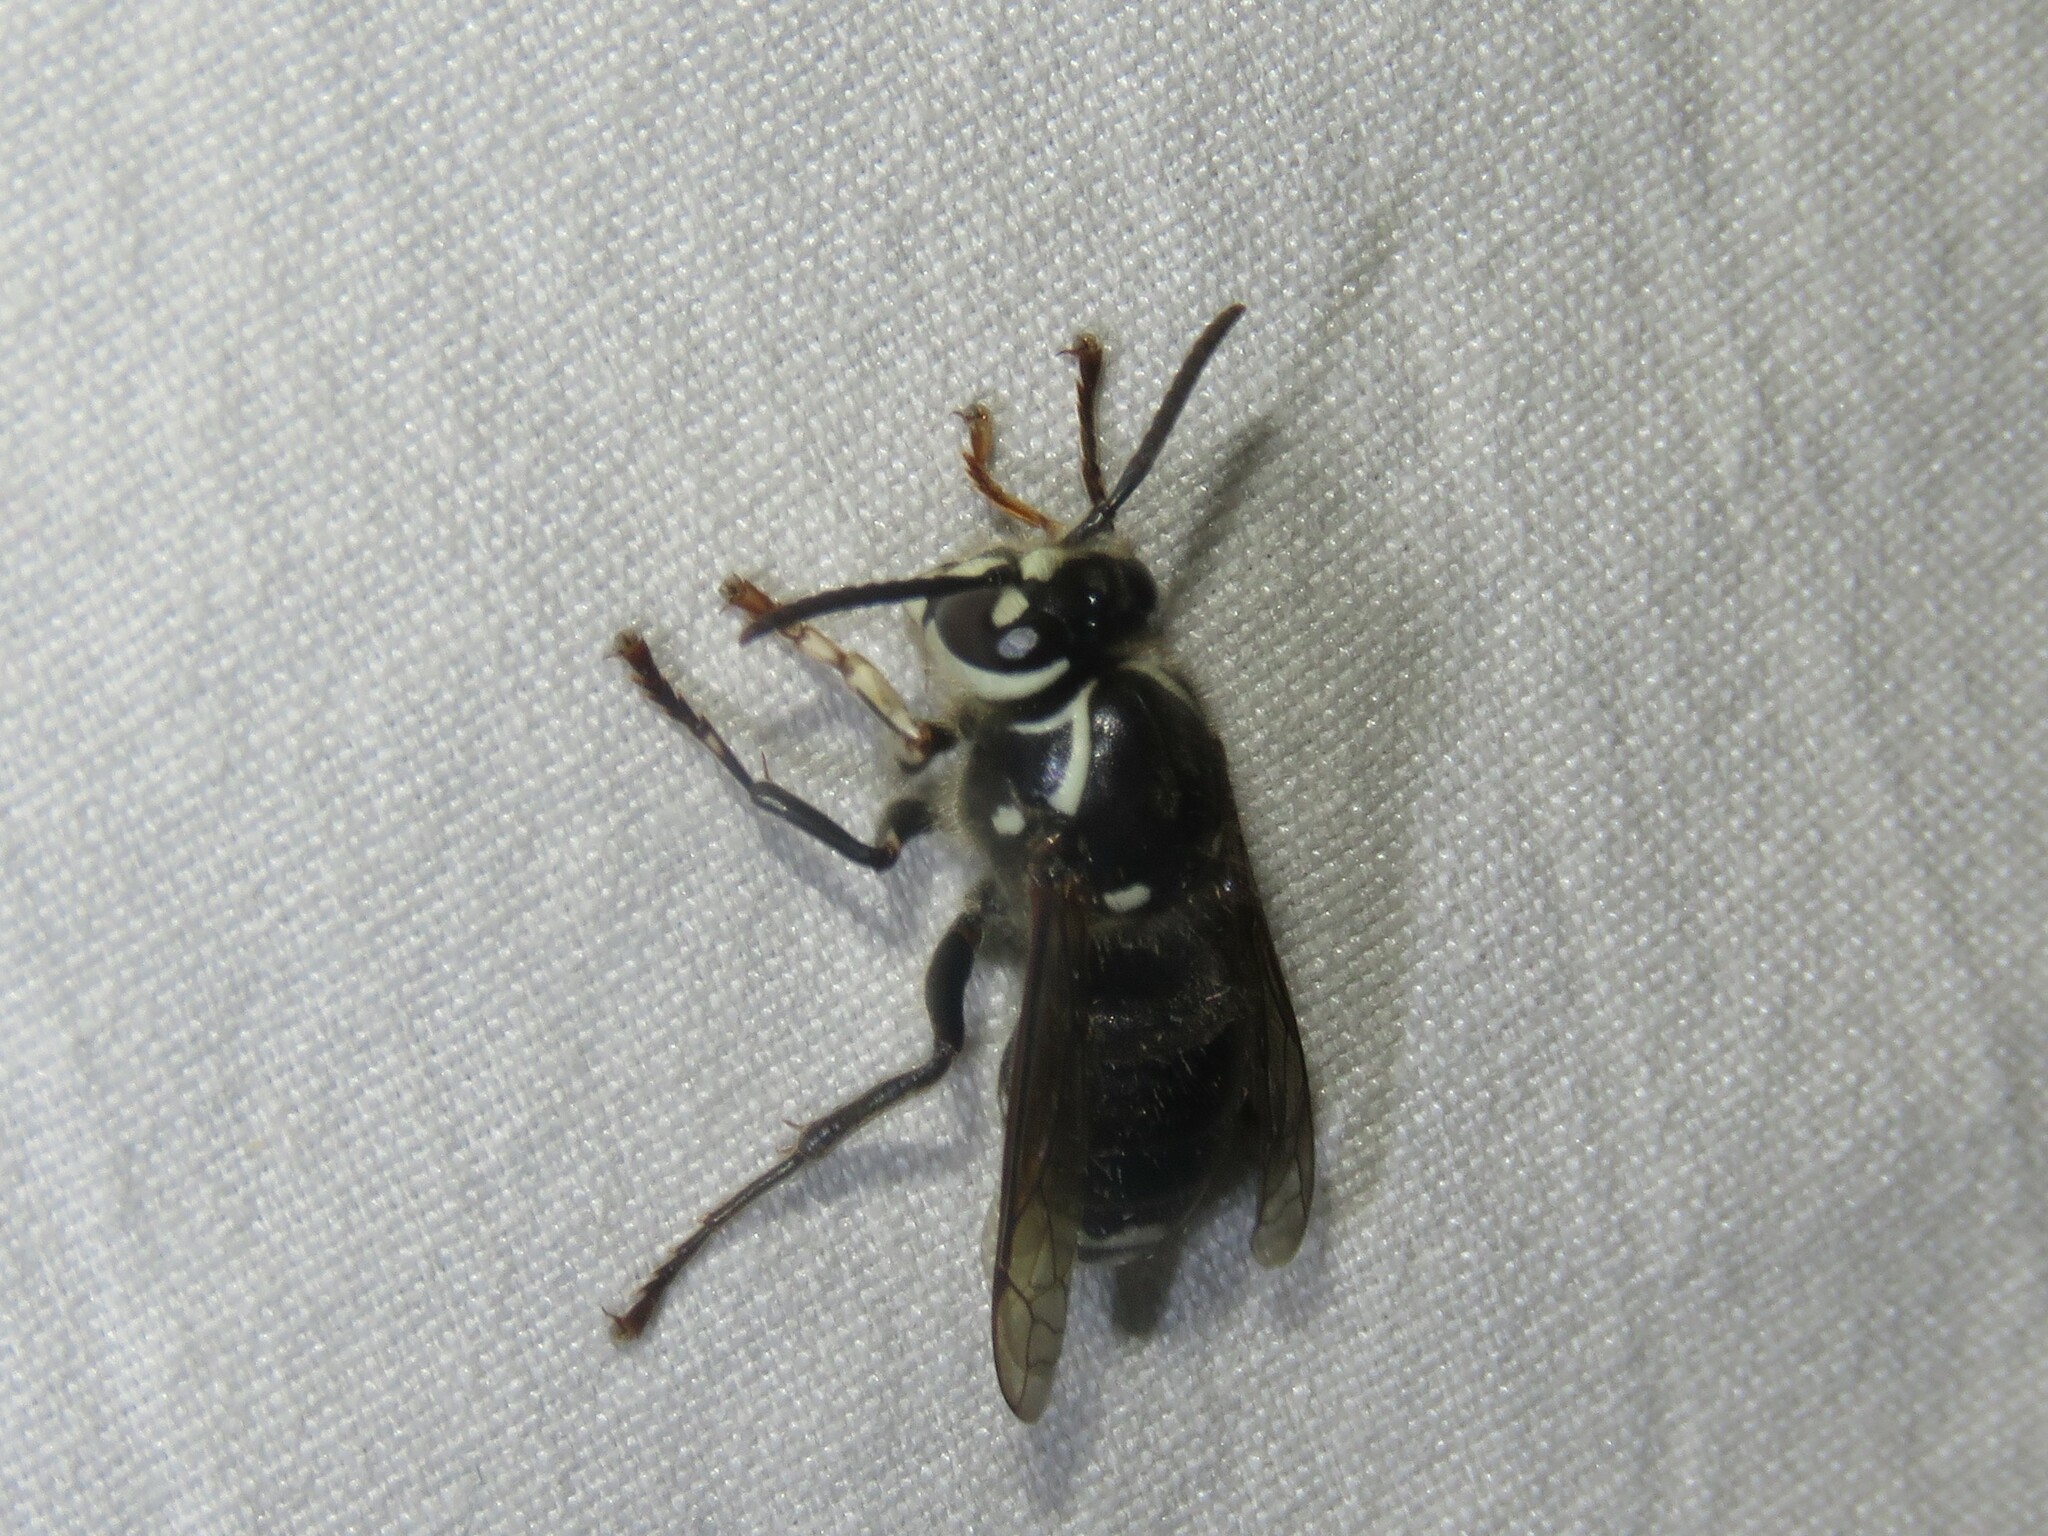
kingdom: Animalia
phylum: Arthropoda
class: Insecta
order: Hymenoptera
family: Vespidae
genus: Dolichovespula
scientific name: Dolichovespula maculata
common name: Bald-faced hornet
